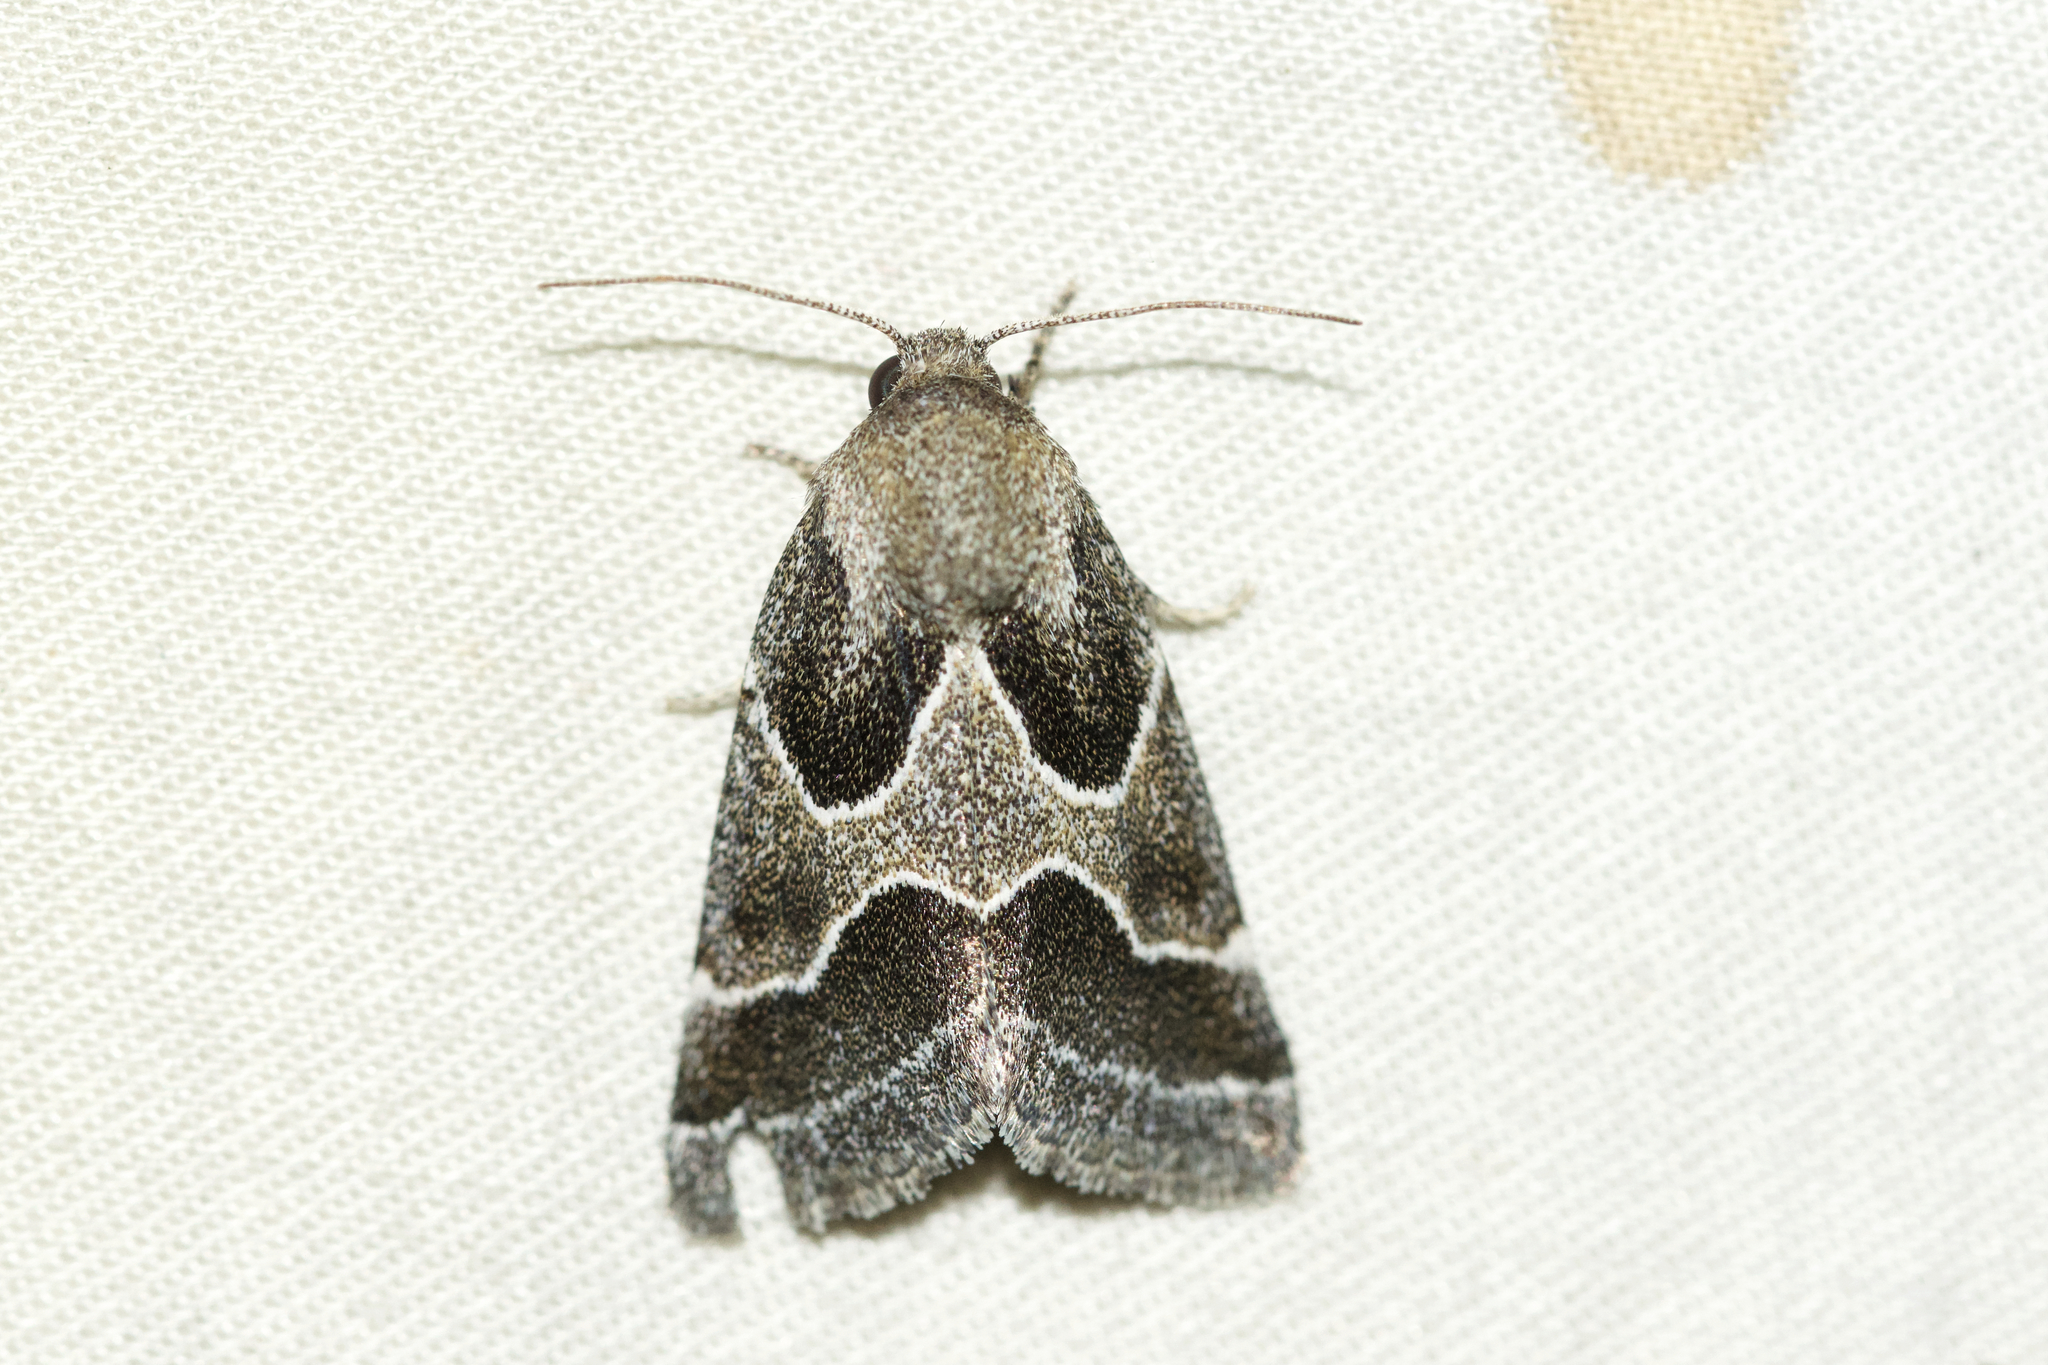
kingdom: Animalia
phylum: Arthropoda
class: Insecta
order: Lepidoptera
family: Noctuidae
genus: Schinia
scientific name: Schinia rivulosa
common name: Scarce meal-moth
